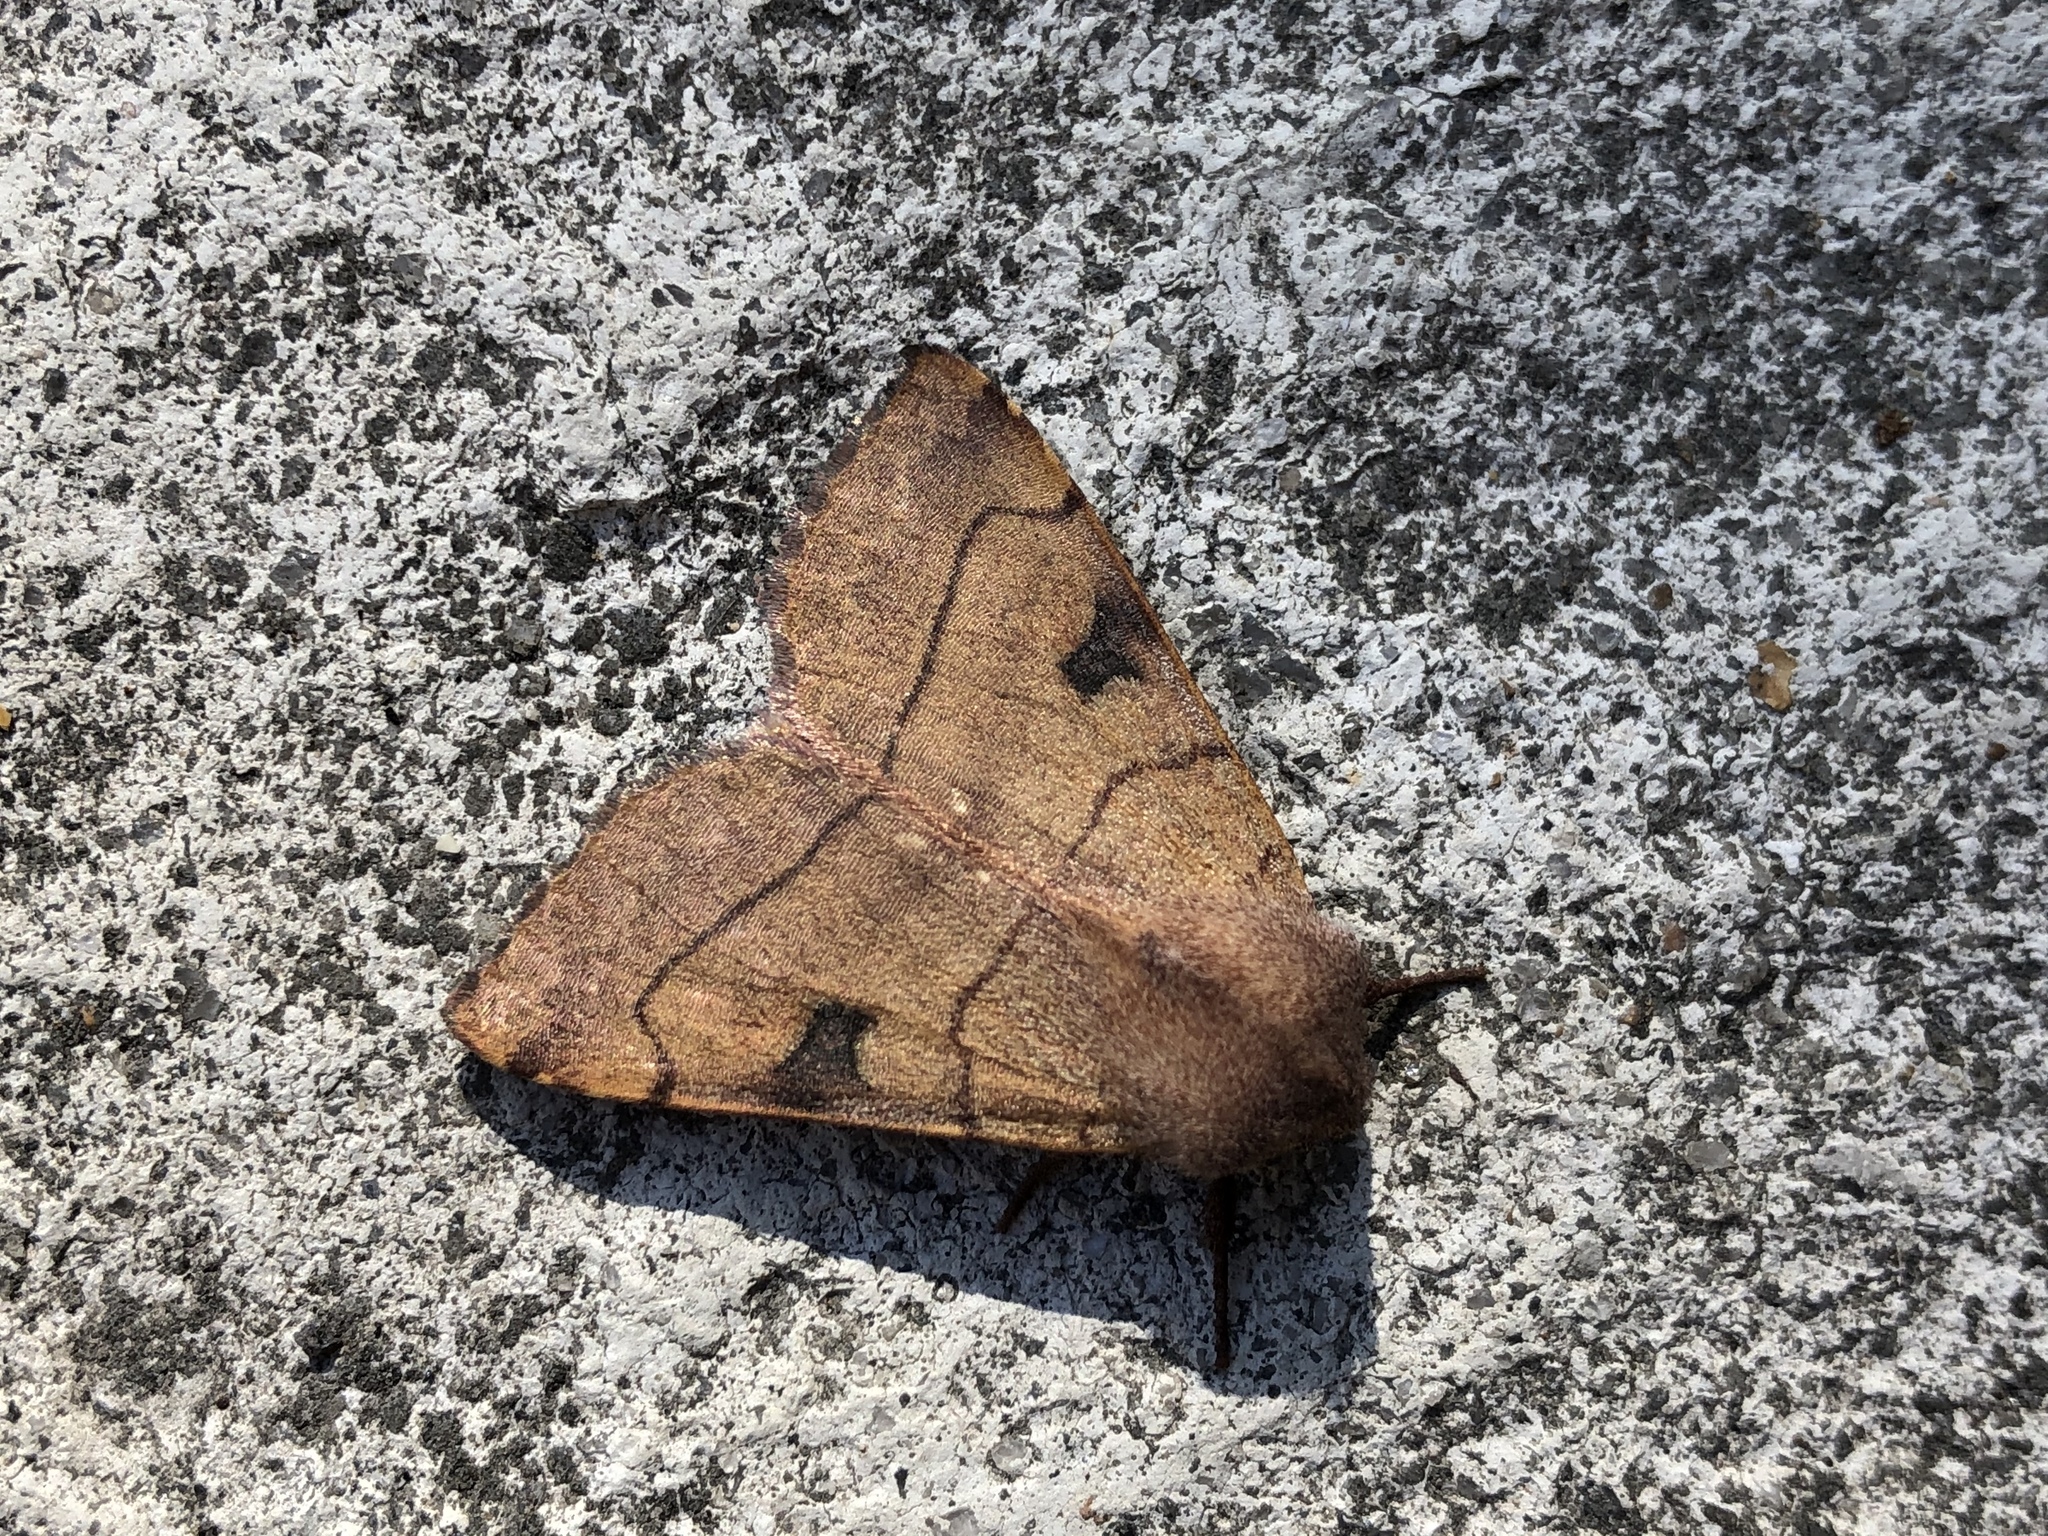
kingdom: Animalia
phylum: Arthropoda
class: Insecta
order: Lepidoptera
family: Noctuidae
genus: Choephora
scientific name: Choephora fungorum
